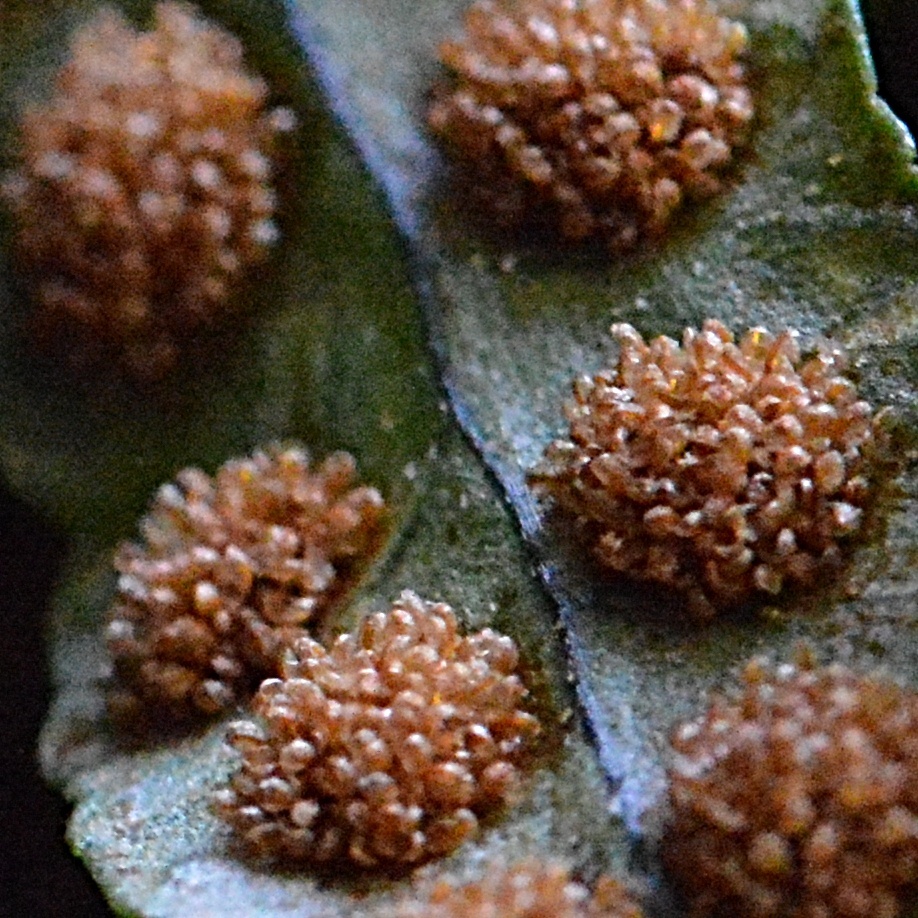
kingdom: Plantae
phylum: Tracheophyta
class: Polypodiopsida
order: Polypodiales
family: Polypodiaceae
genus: Polypodium
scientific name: Polypodium vulgare
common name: Common polypody
